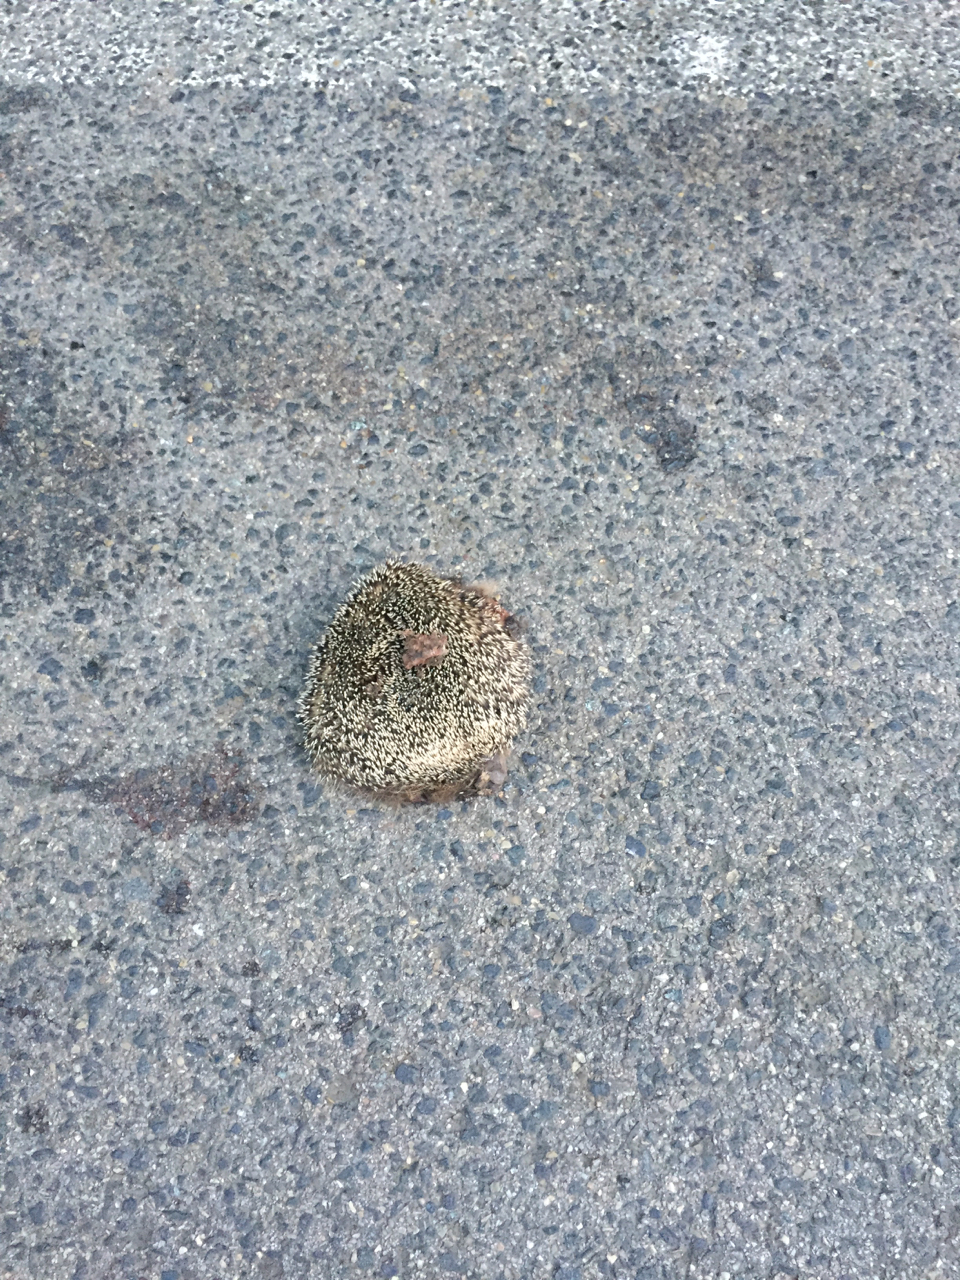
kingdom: Animalia
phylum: Chordata
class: Mammalia
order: Erinaceomorpha
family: Erinaceidae
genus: Erinaceus
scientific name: Erinaceus europaeus
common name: West european hedgehog
